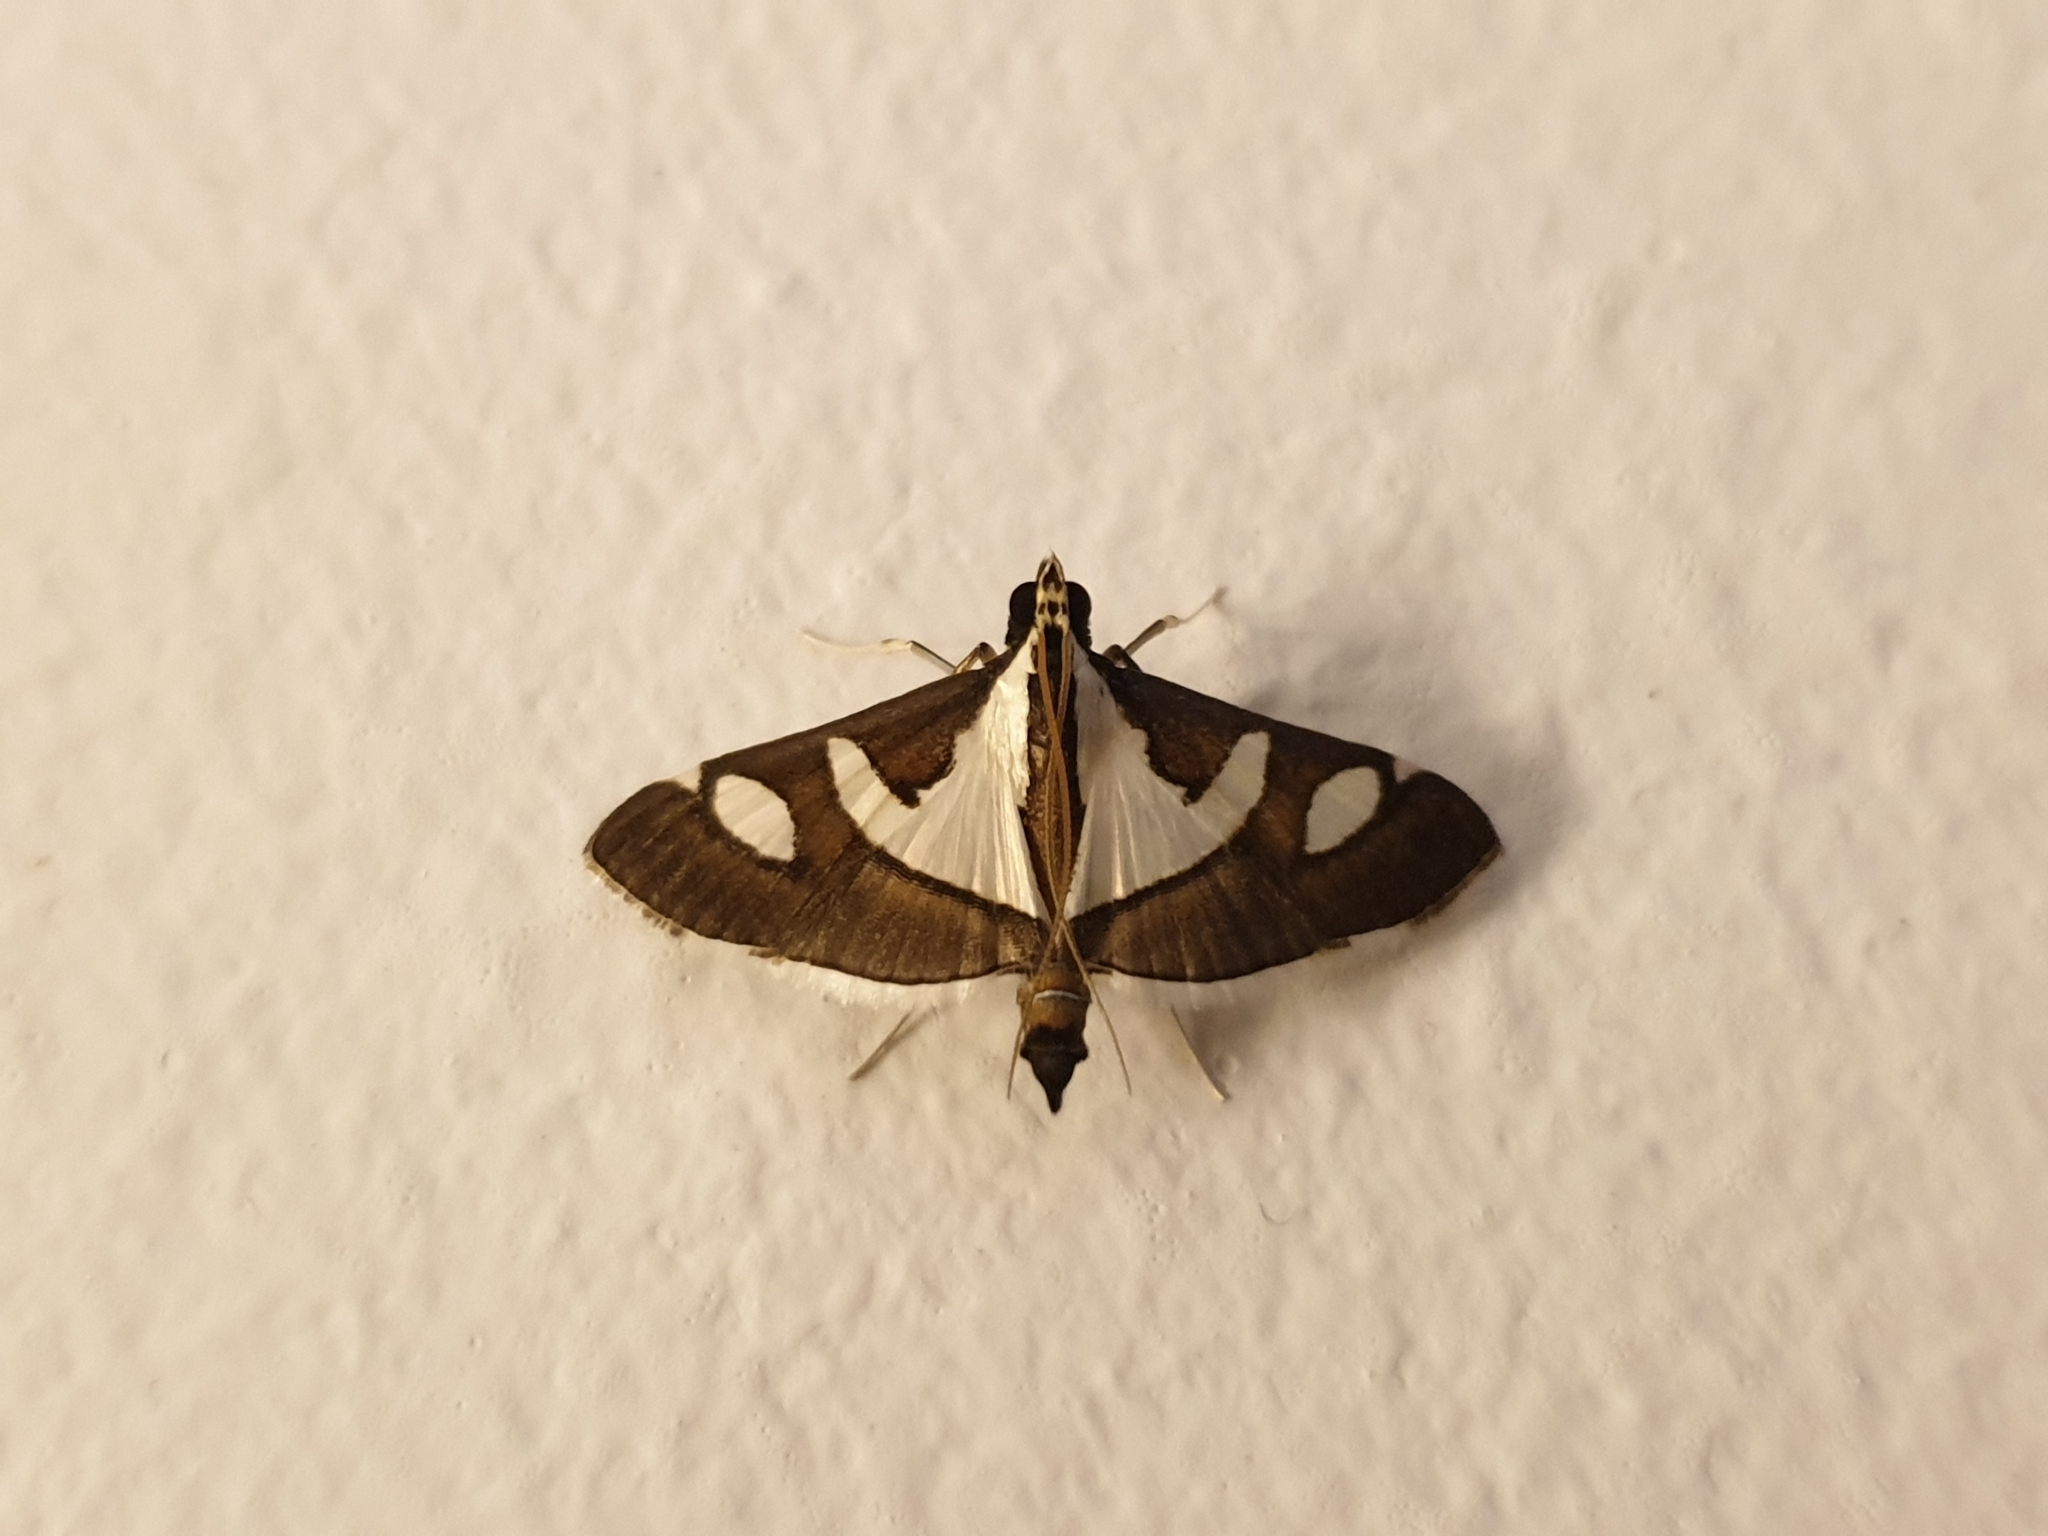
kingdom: Animalia
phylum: Arthropoda
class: Insecta
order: Lepidoptera
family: Crambidae
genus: Glyphodes
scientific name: Glyphodes bicolor
